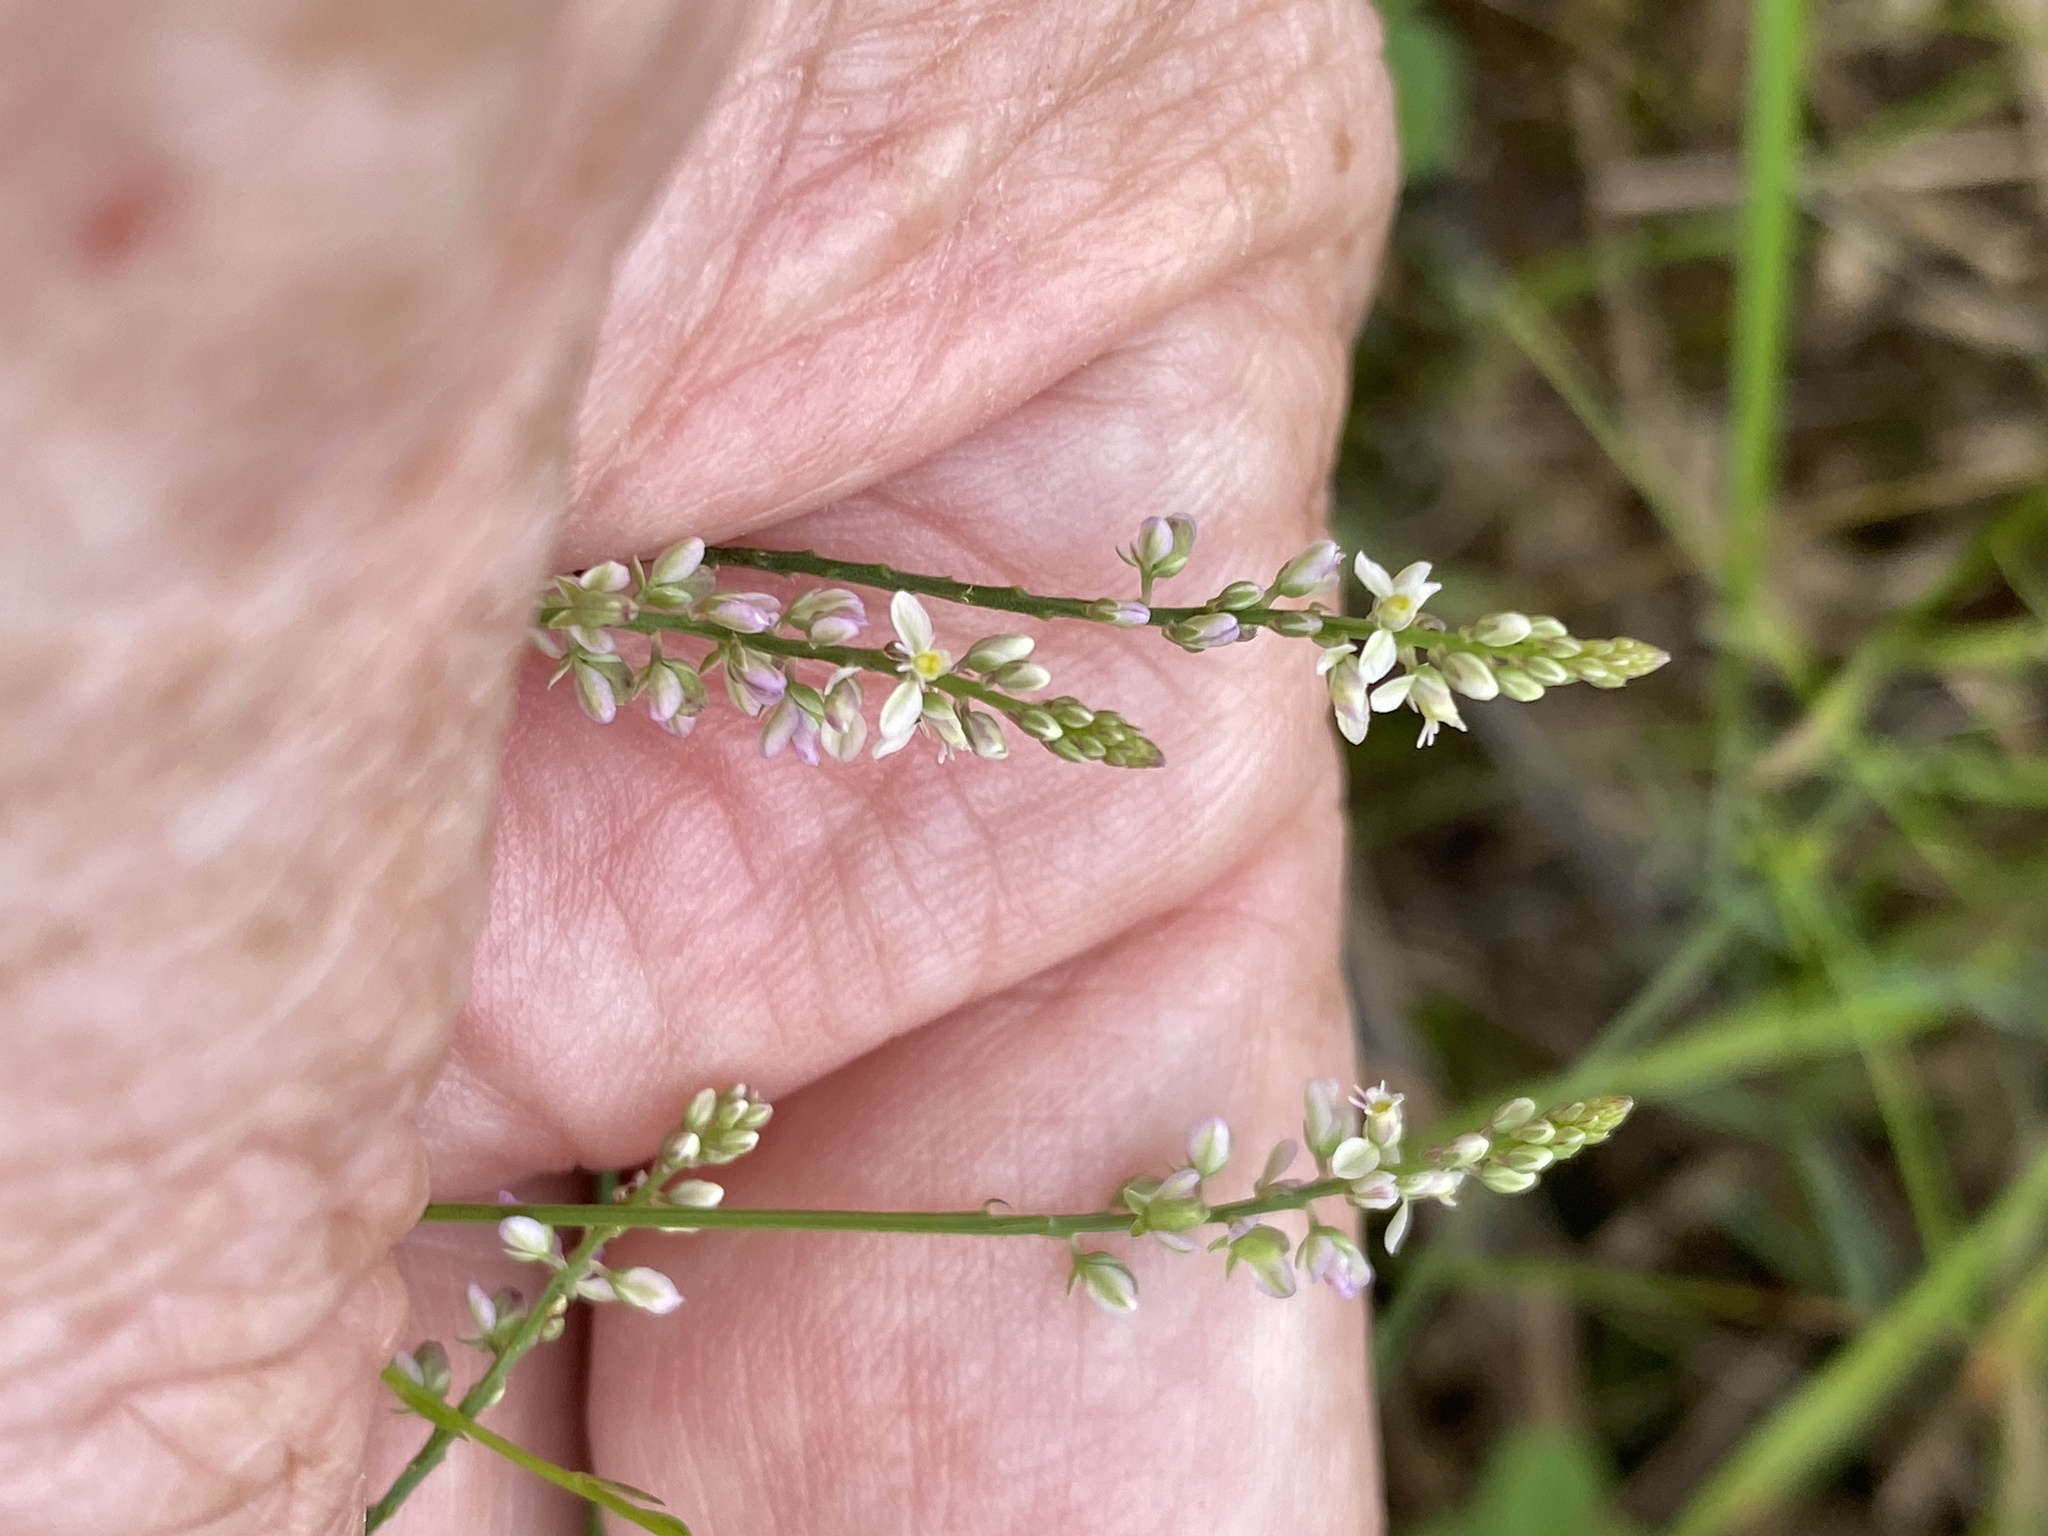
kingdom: Plantae
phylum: Tracheophyta
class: Magnoliopsida
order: Fabales
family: Polygalaceae
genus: Polygala
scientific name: Polygala ambigua
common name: Alternate milkwort
